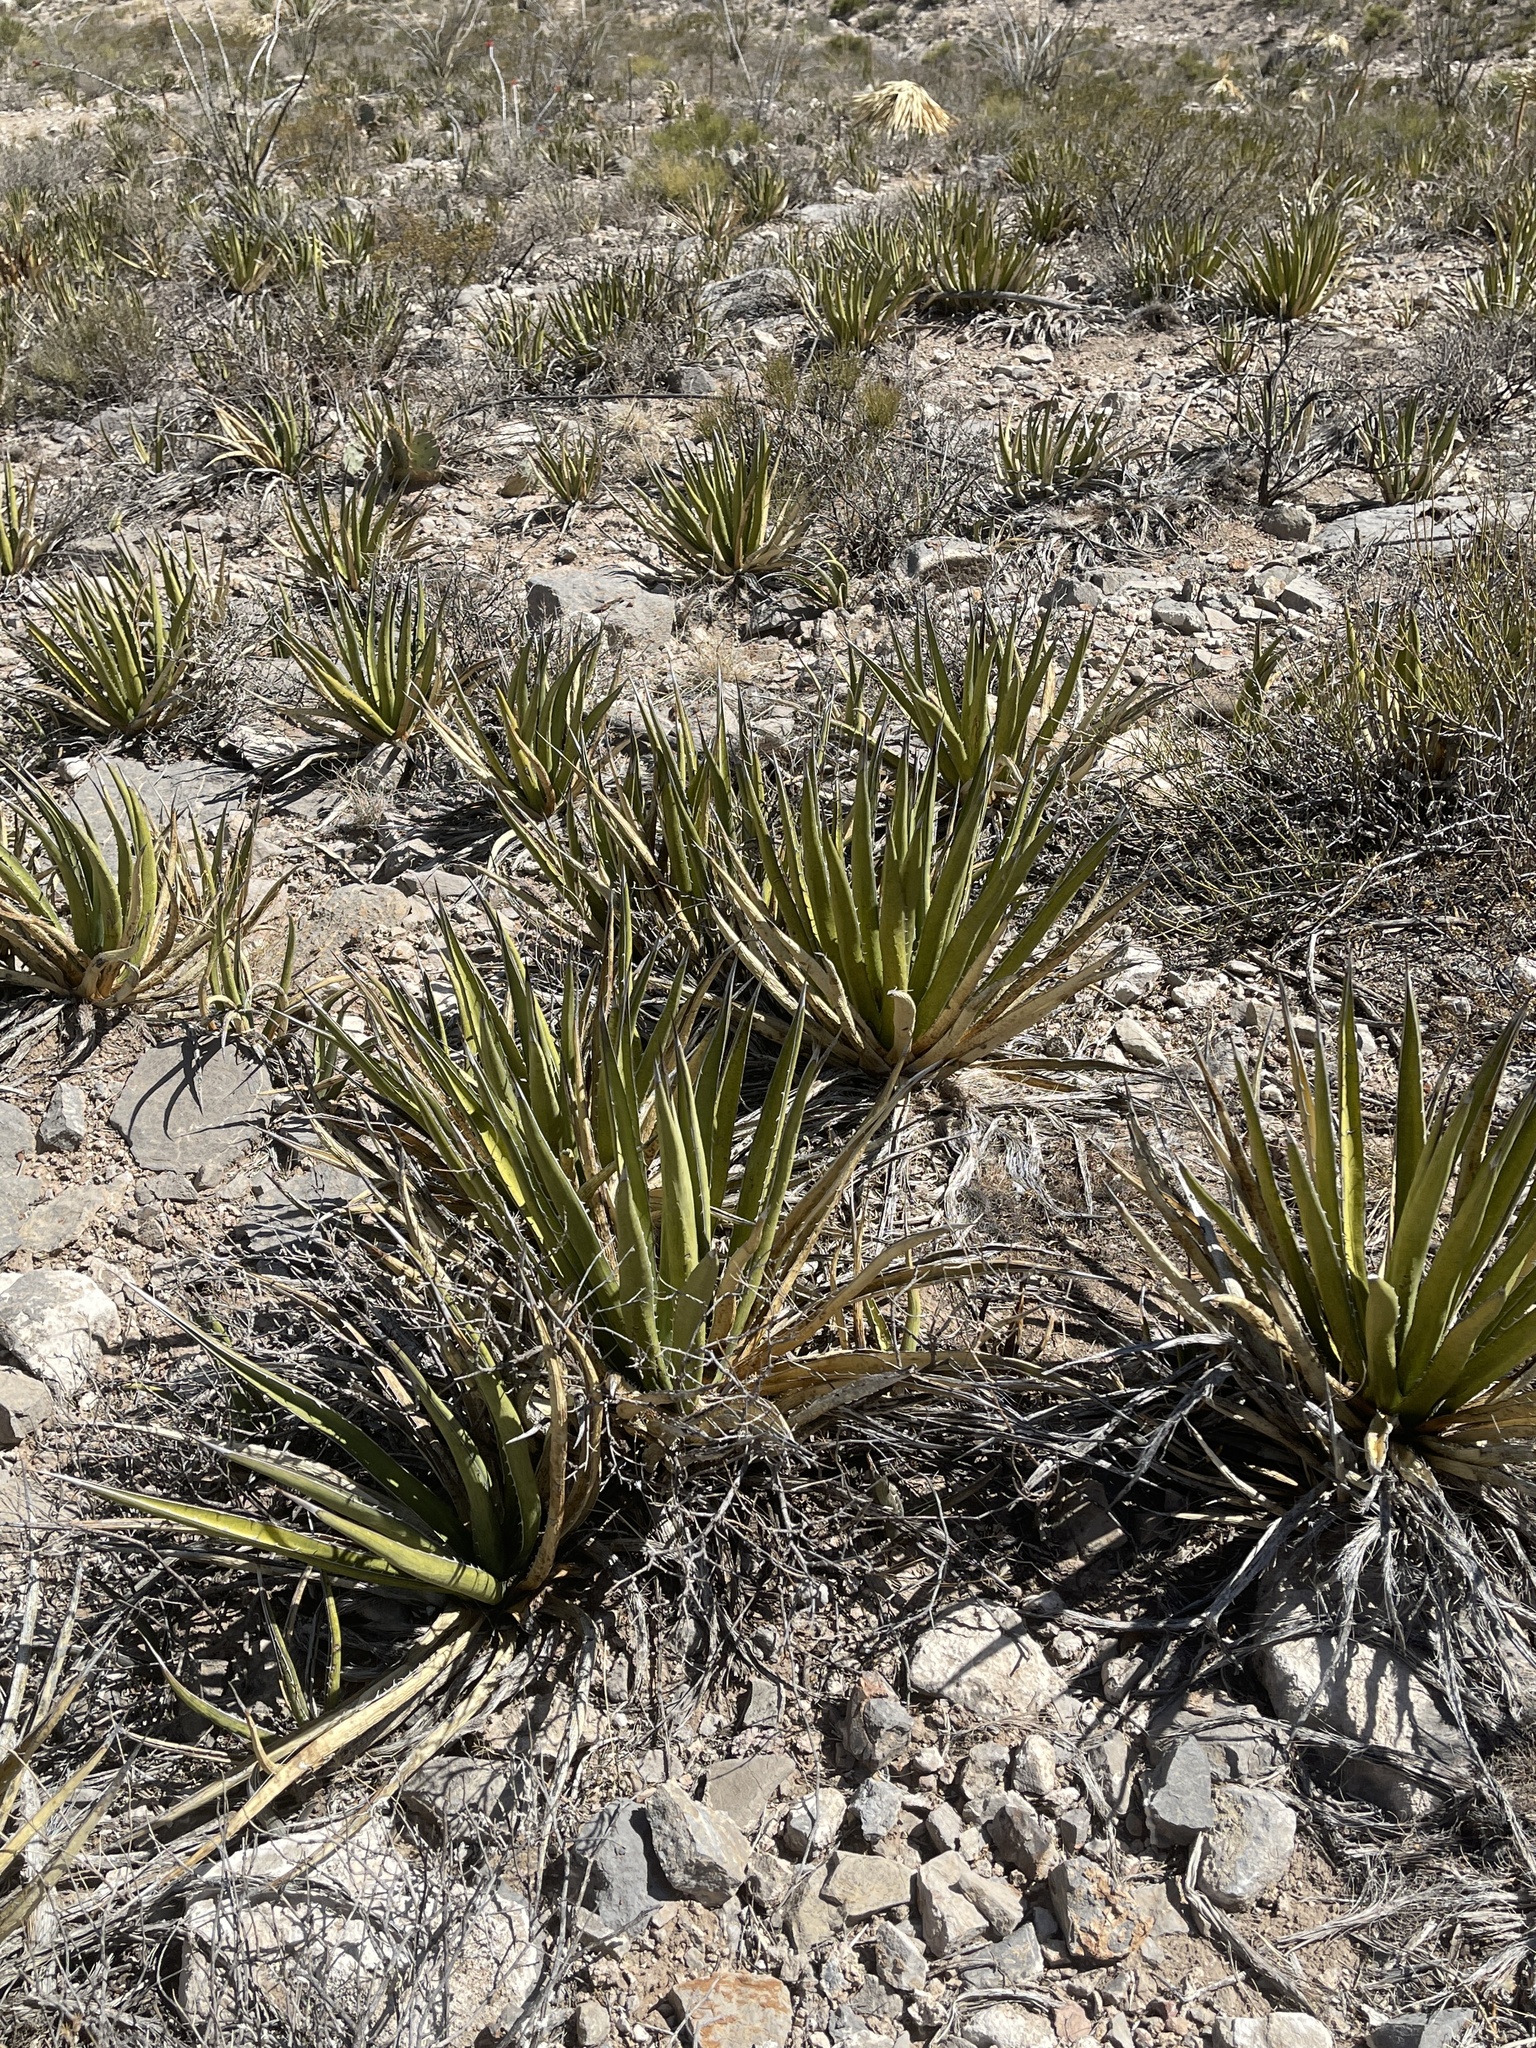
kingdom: Plantae
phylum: Tracheophyta
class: Liliopsida
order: Asparagales
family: Asparagaceae
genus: Agave
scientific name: Agave lechuguilla
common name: Lecheguilla agave
